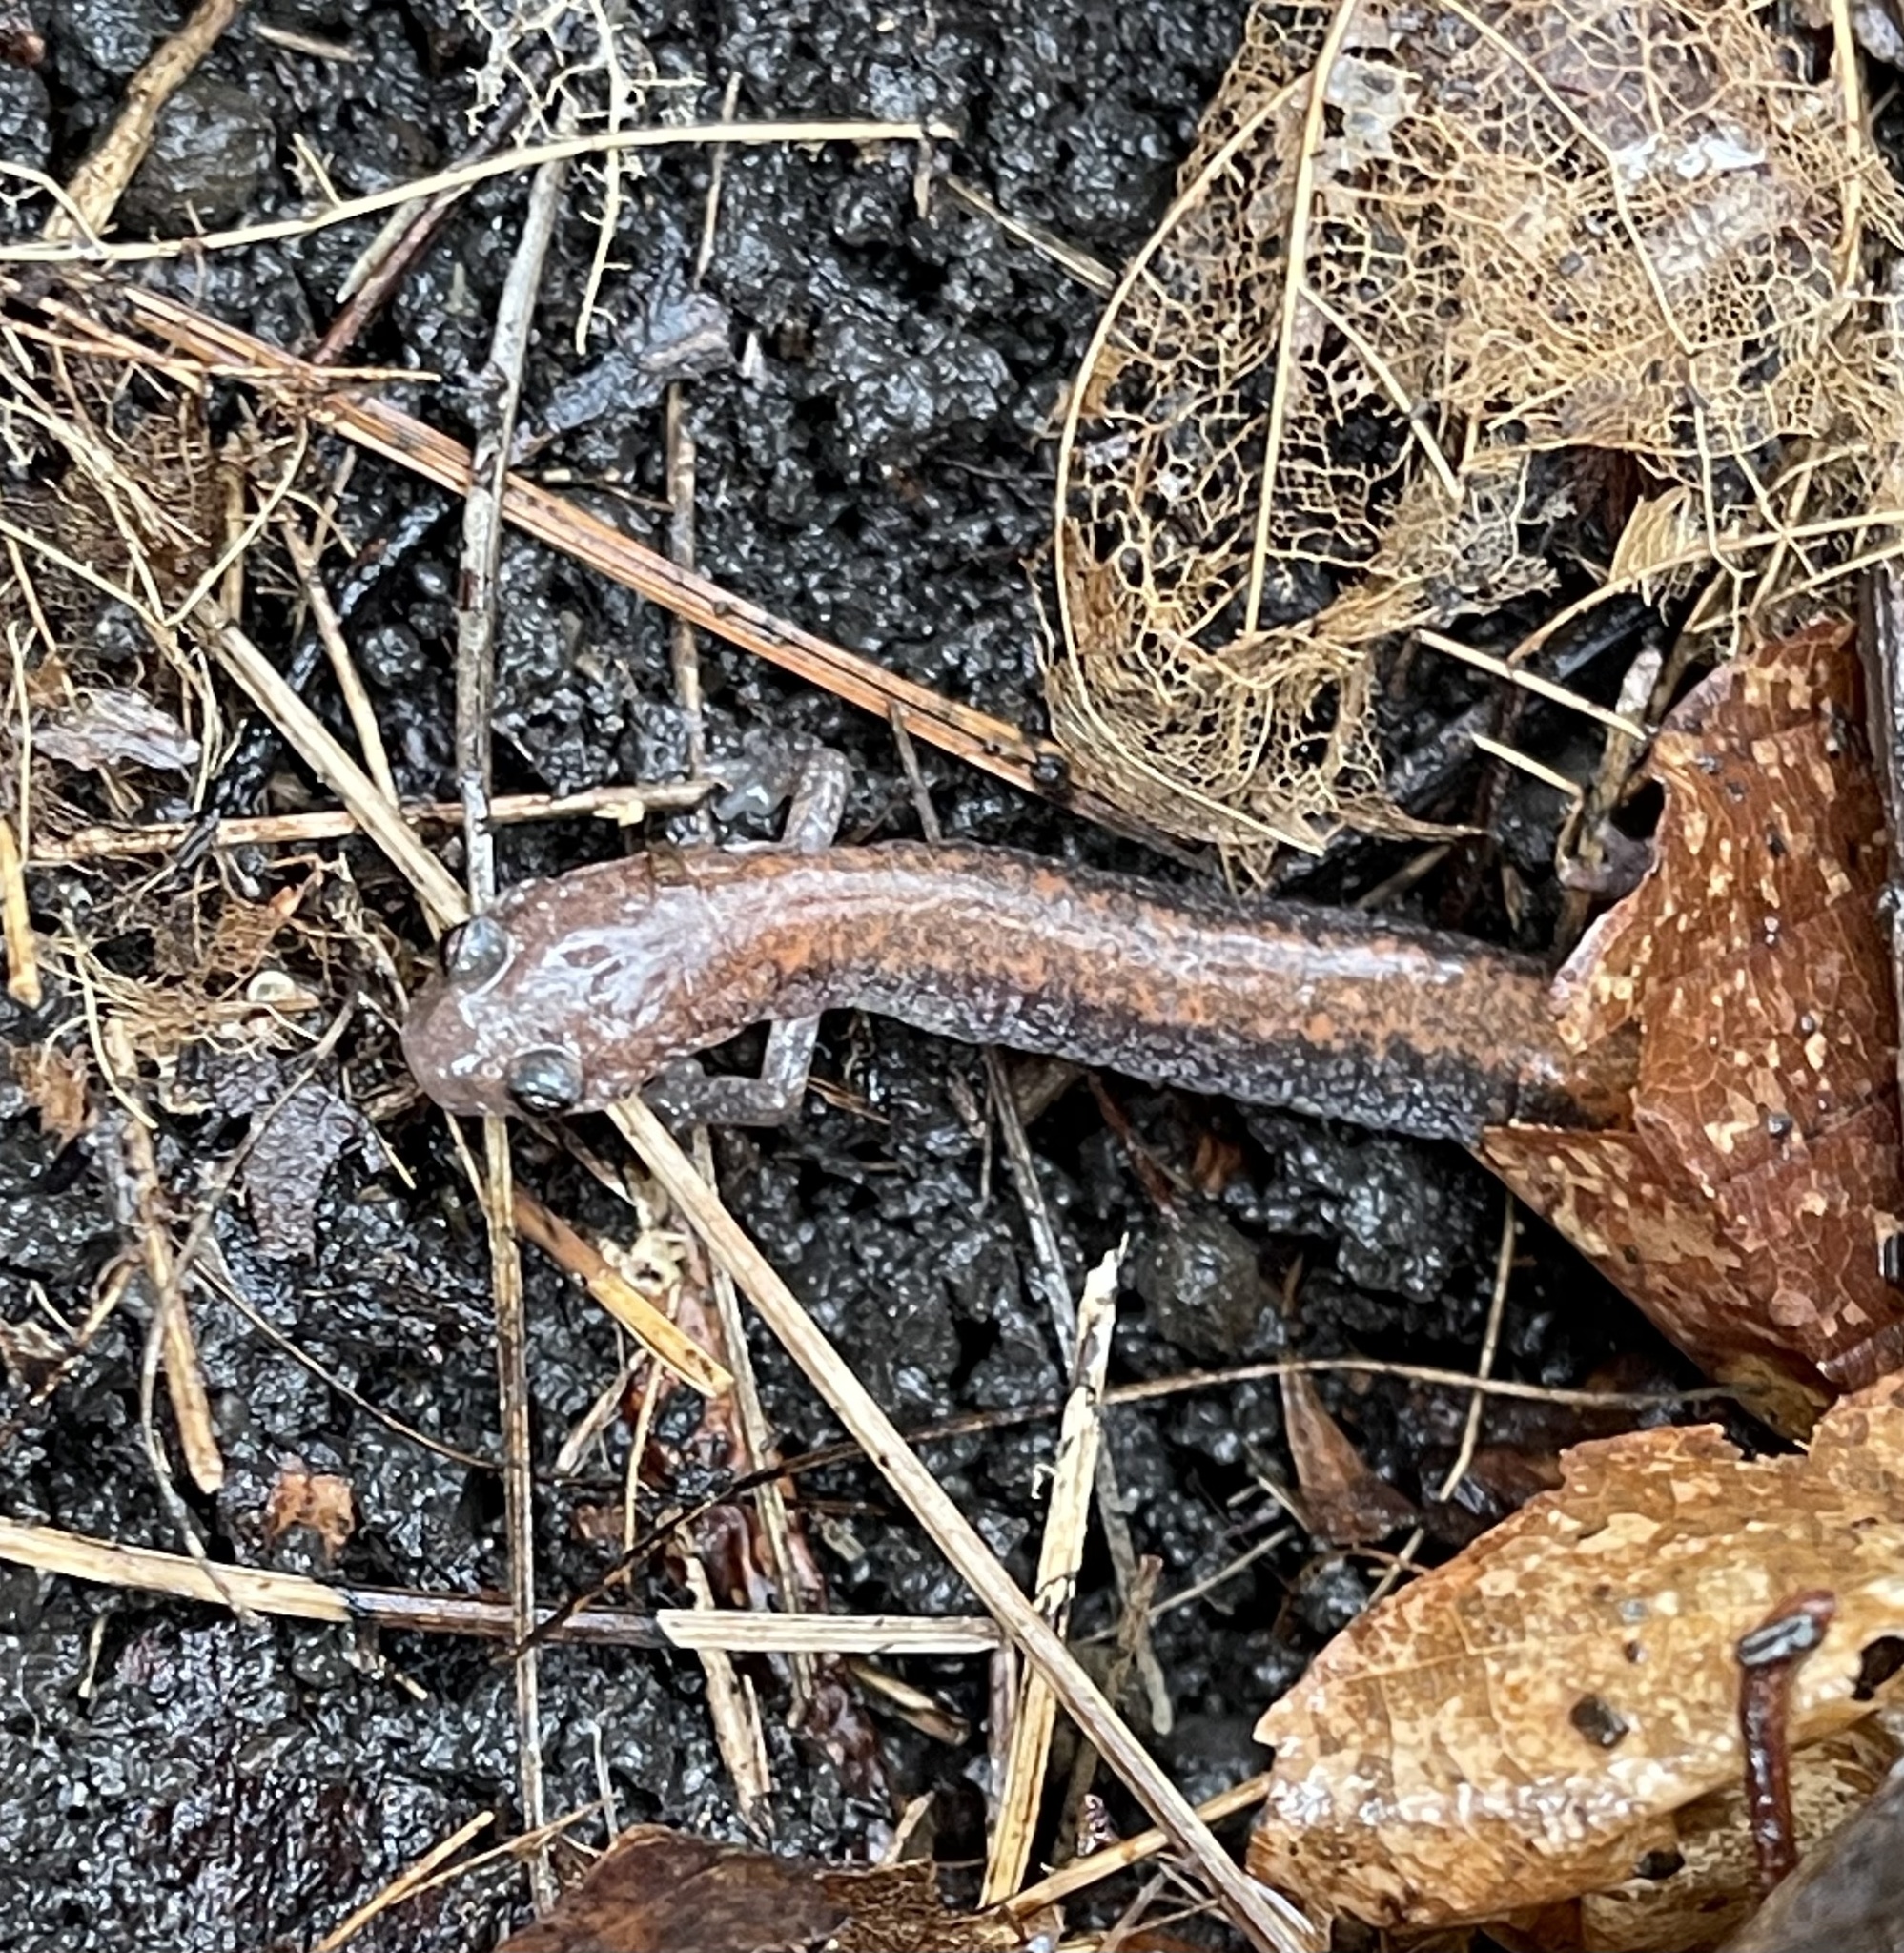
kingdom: Animalia
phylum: Chordata
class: Amphibia
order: Caudata
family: Plethodontidae
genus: Plethodon
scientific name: Plethodon cinereus
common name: Redback salamander
